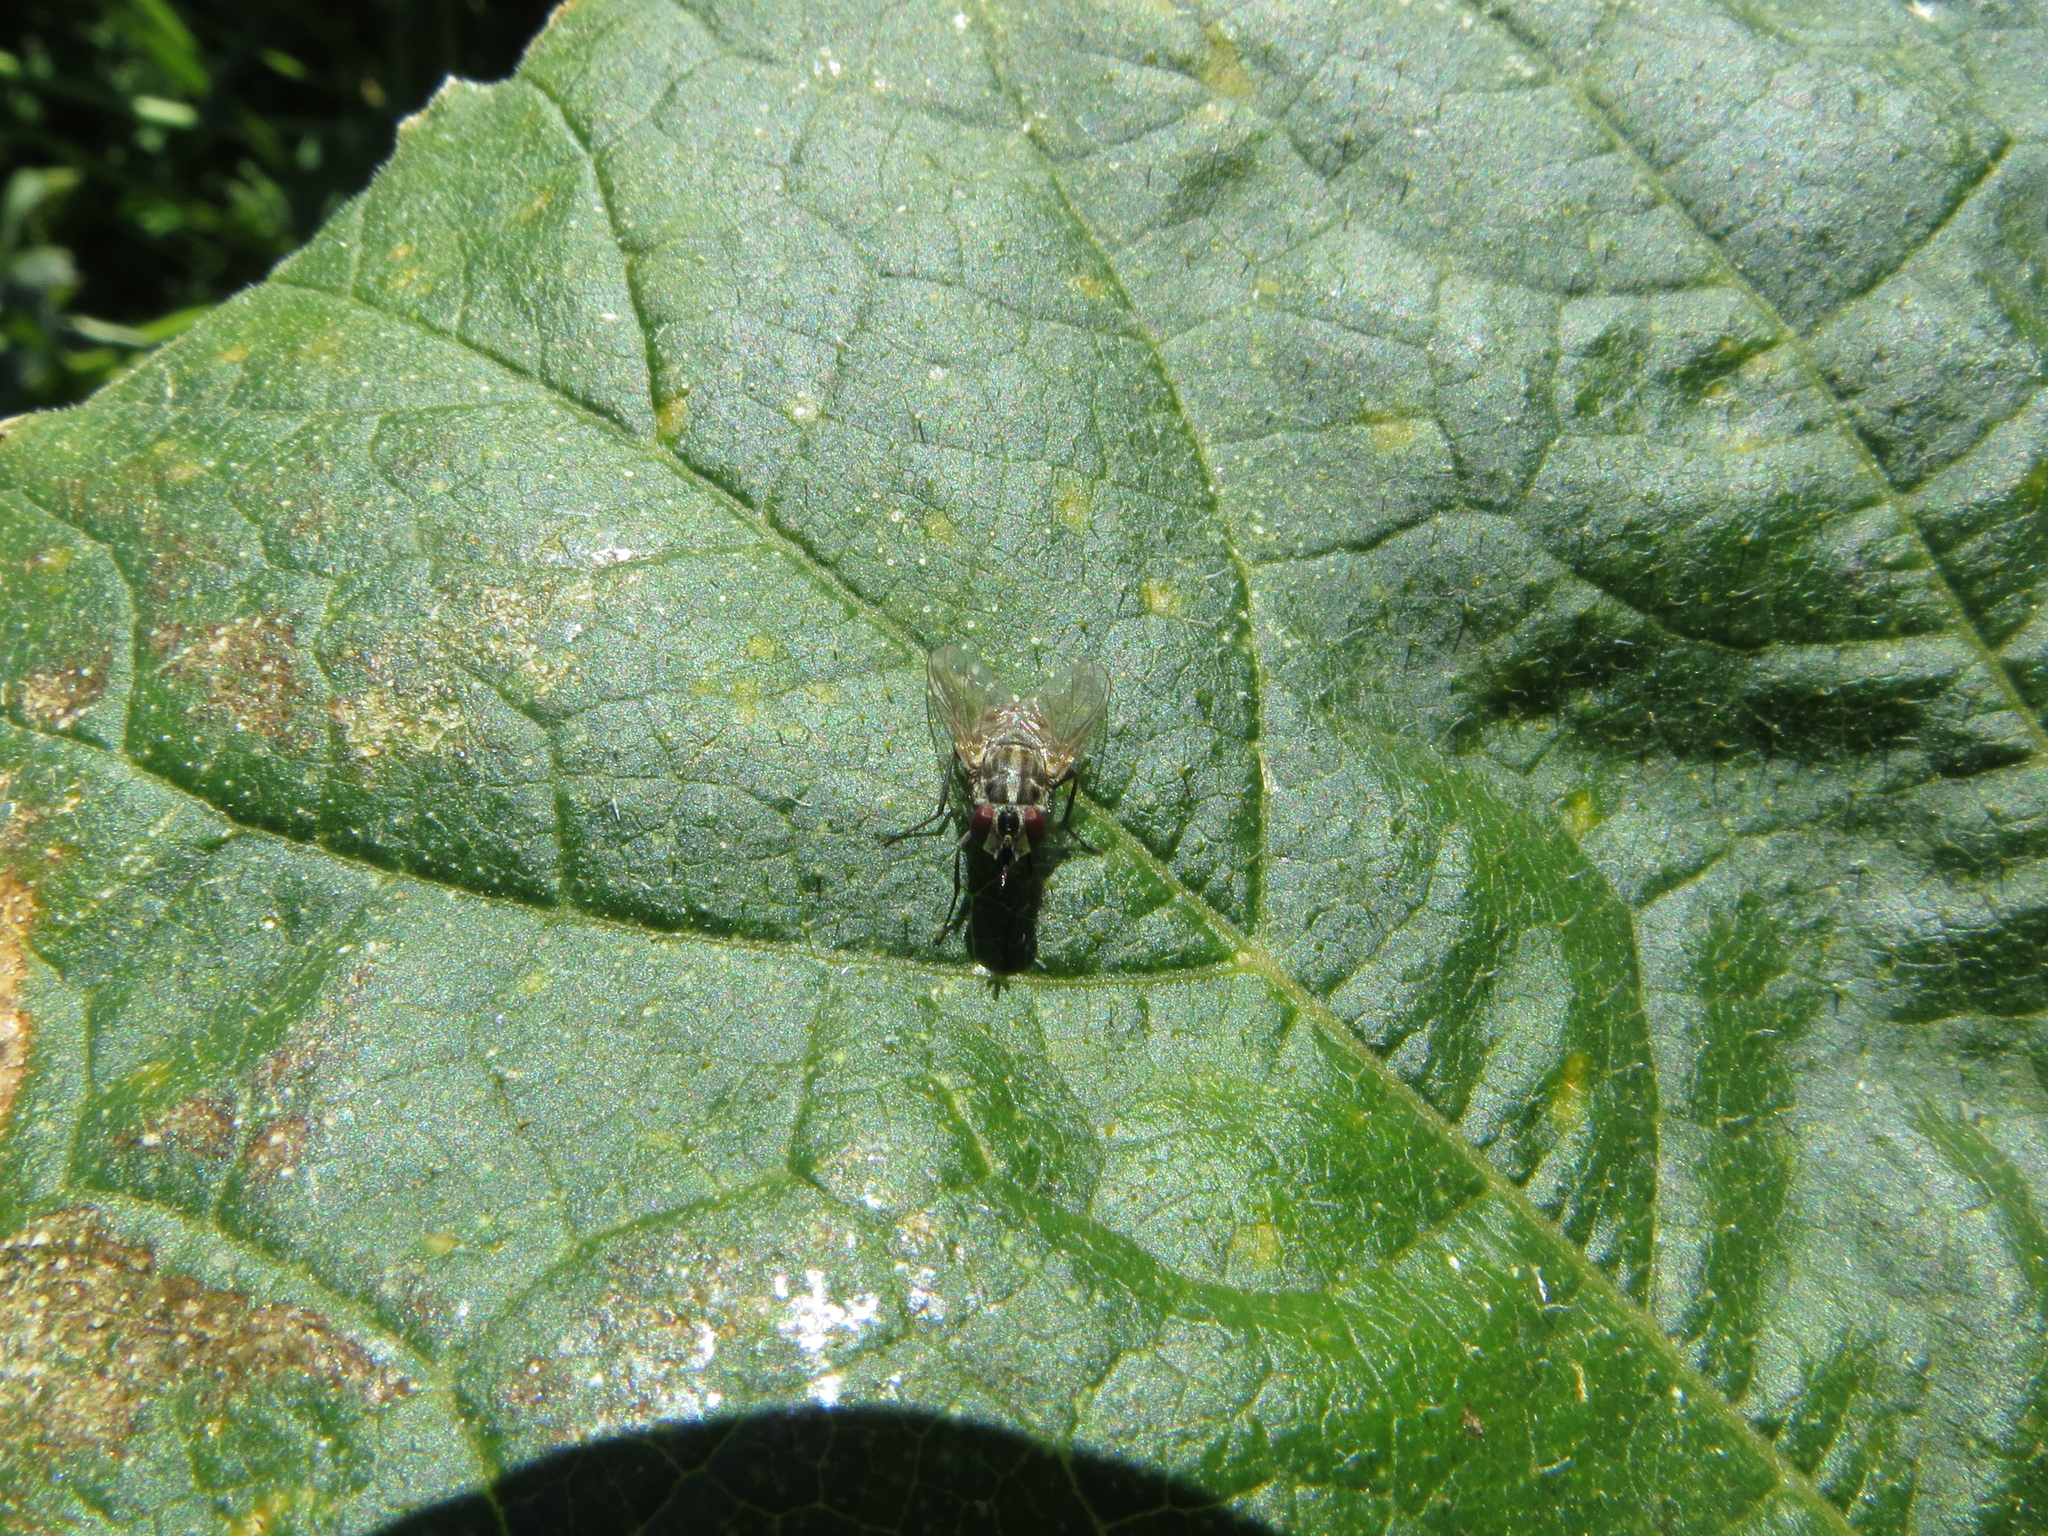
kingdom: Animalia
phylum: Arthropoda
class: Insecta
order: Diptera
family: Muscidae
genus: Stomoxys
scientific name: Stomoxys calcitrans
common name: Stable fly
